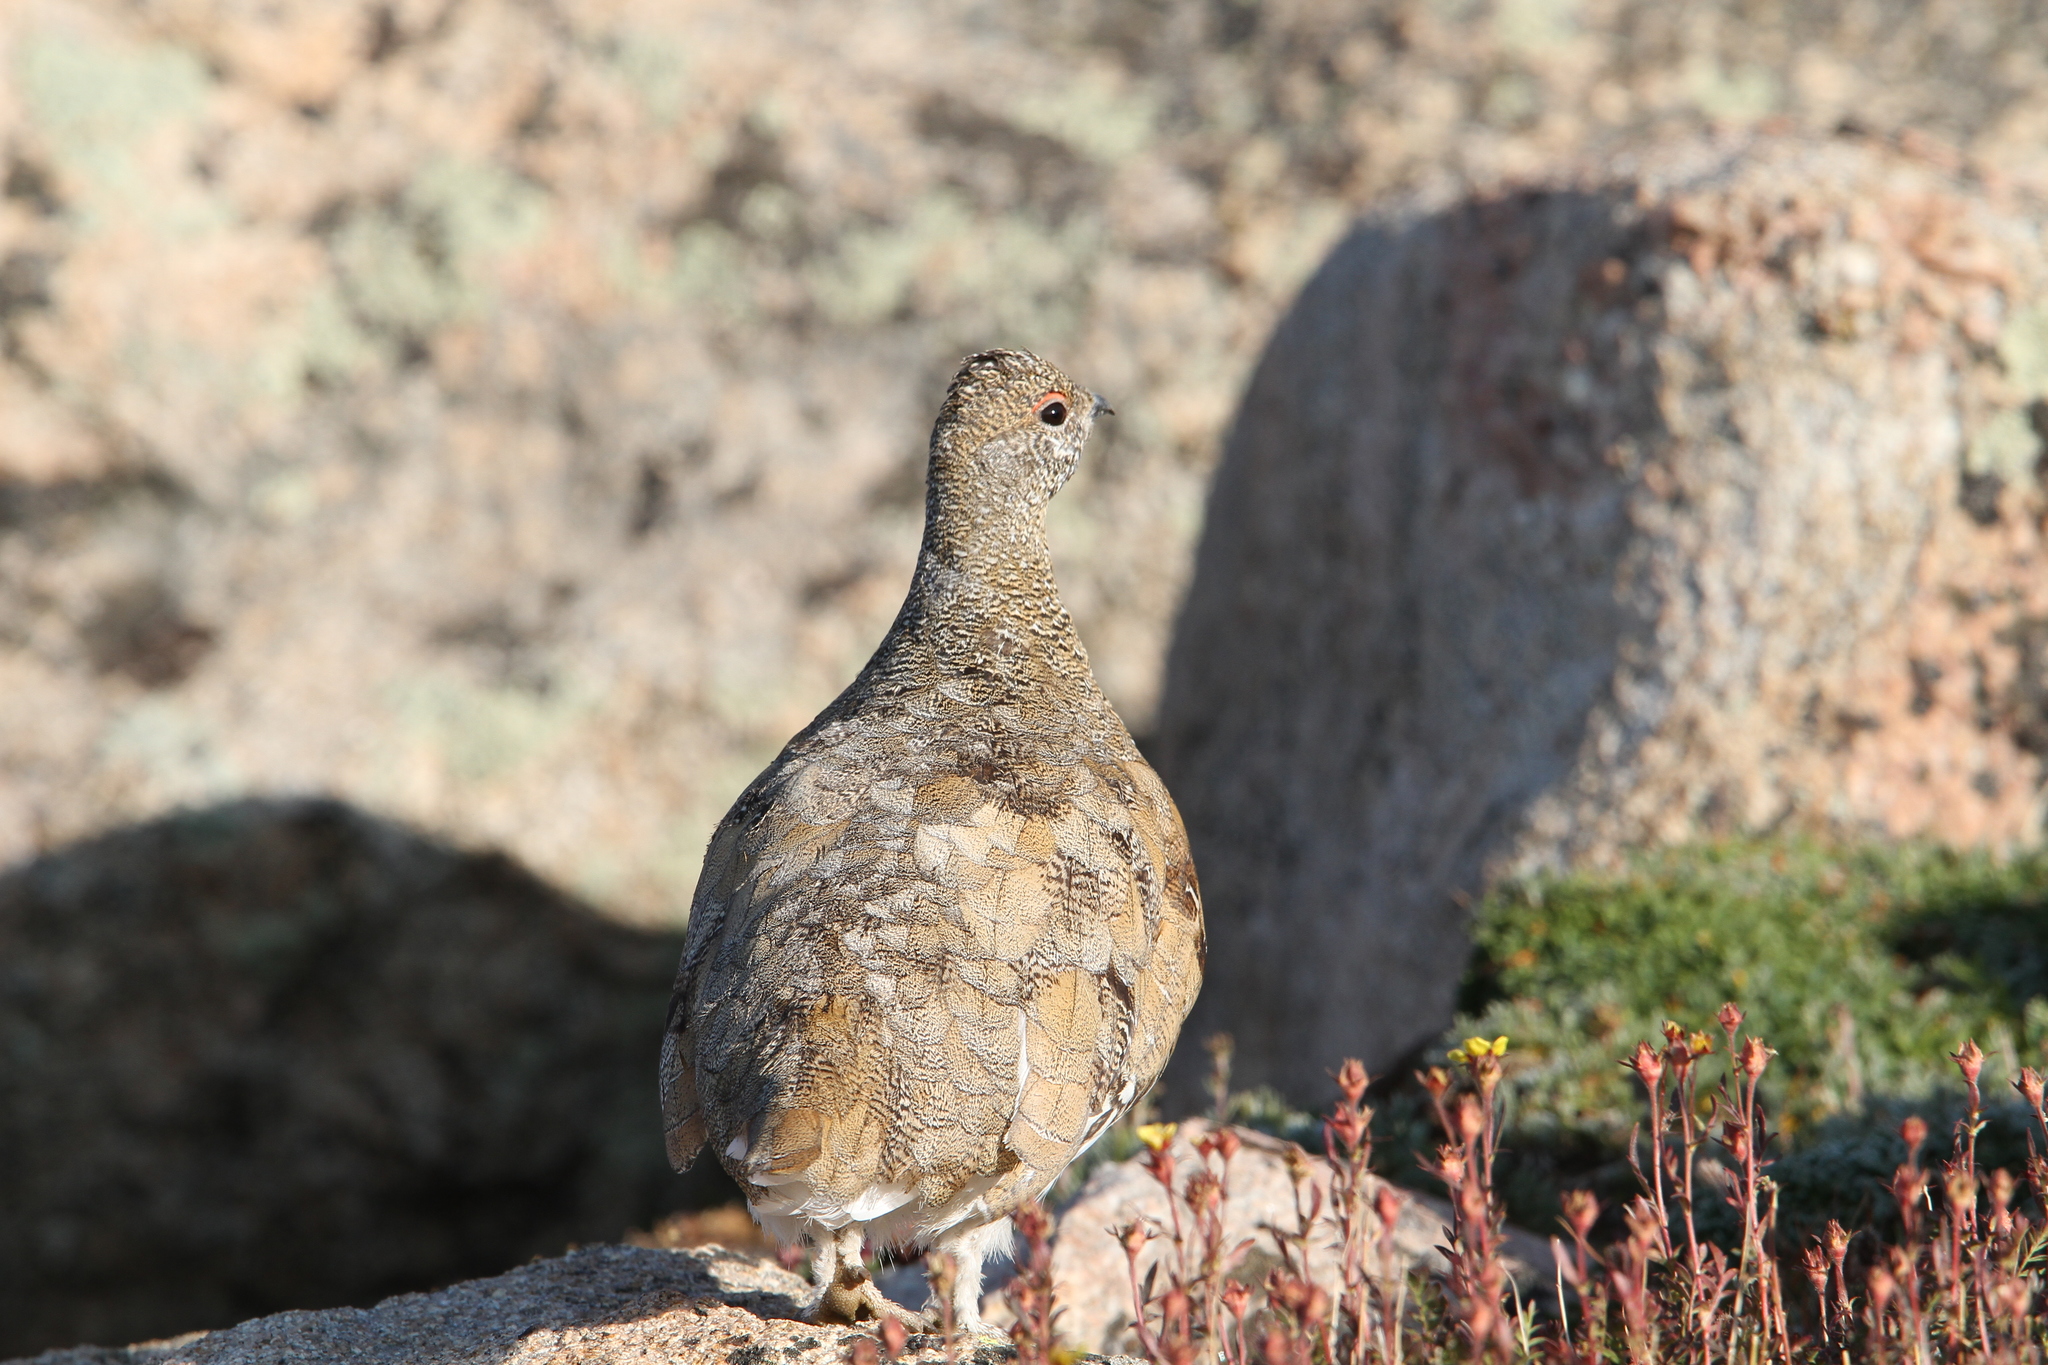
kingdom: Animalia
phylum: Chordata
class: Aves
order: Galliformes
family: Phasianidae
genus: Lagopus
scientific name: Lagopus leucura
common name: White-tailed ptarmigan
